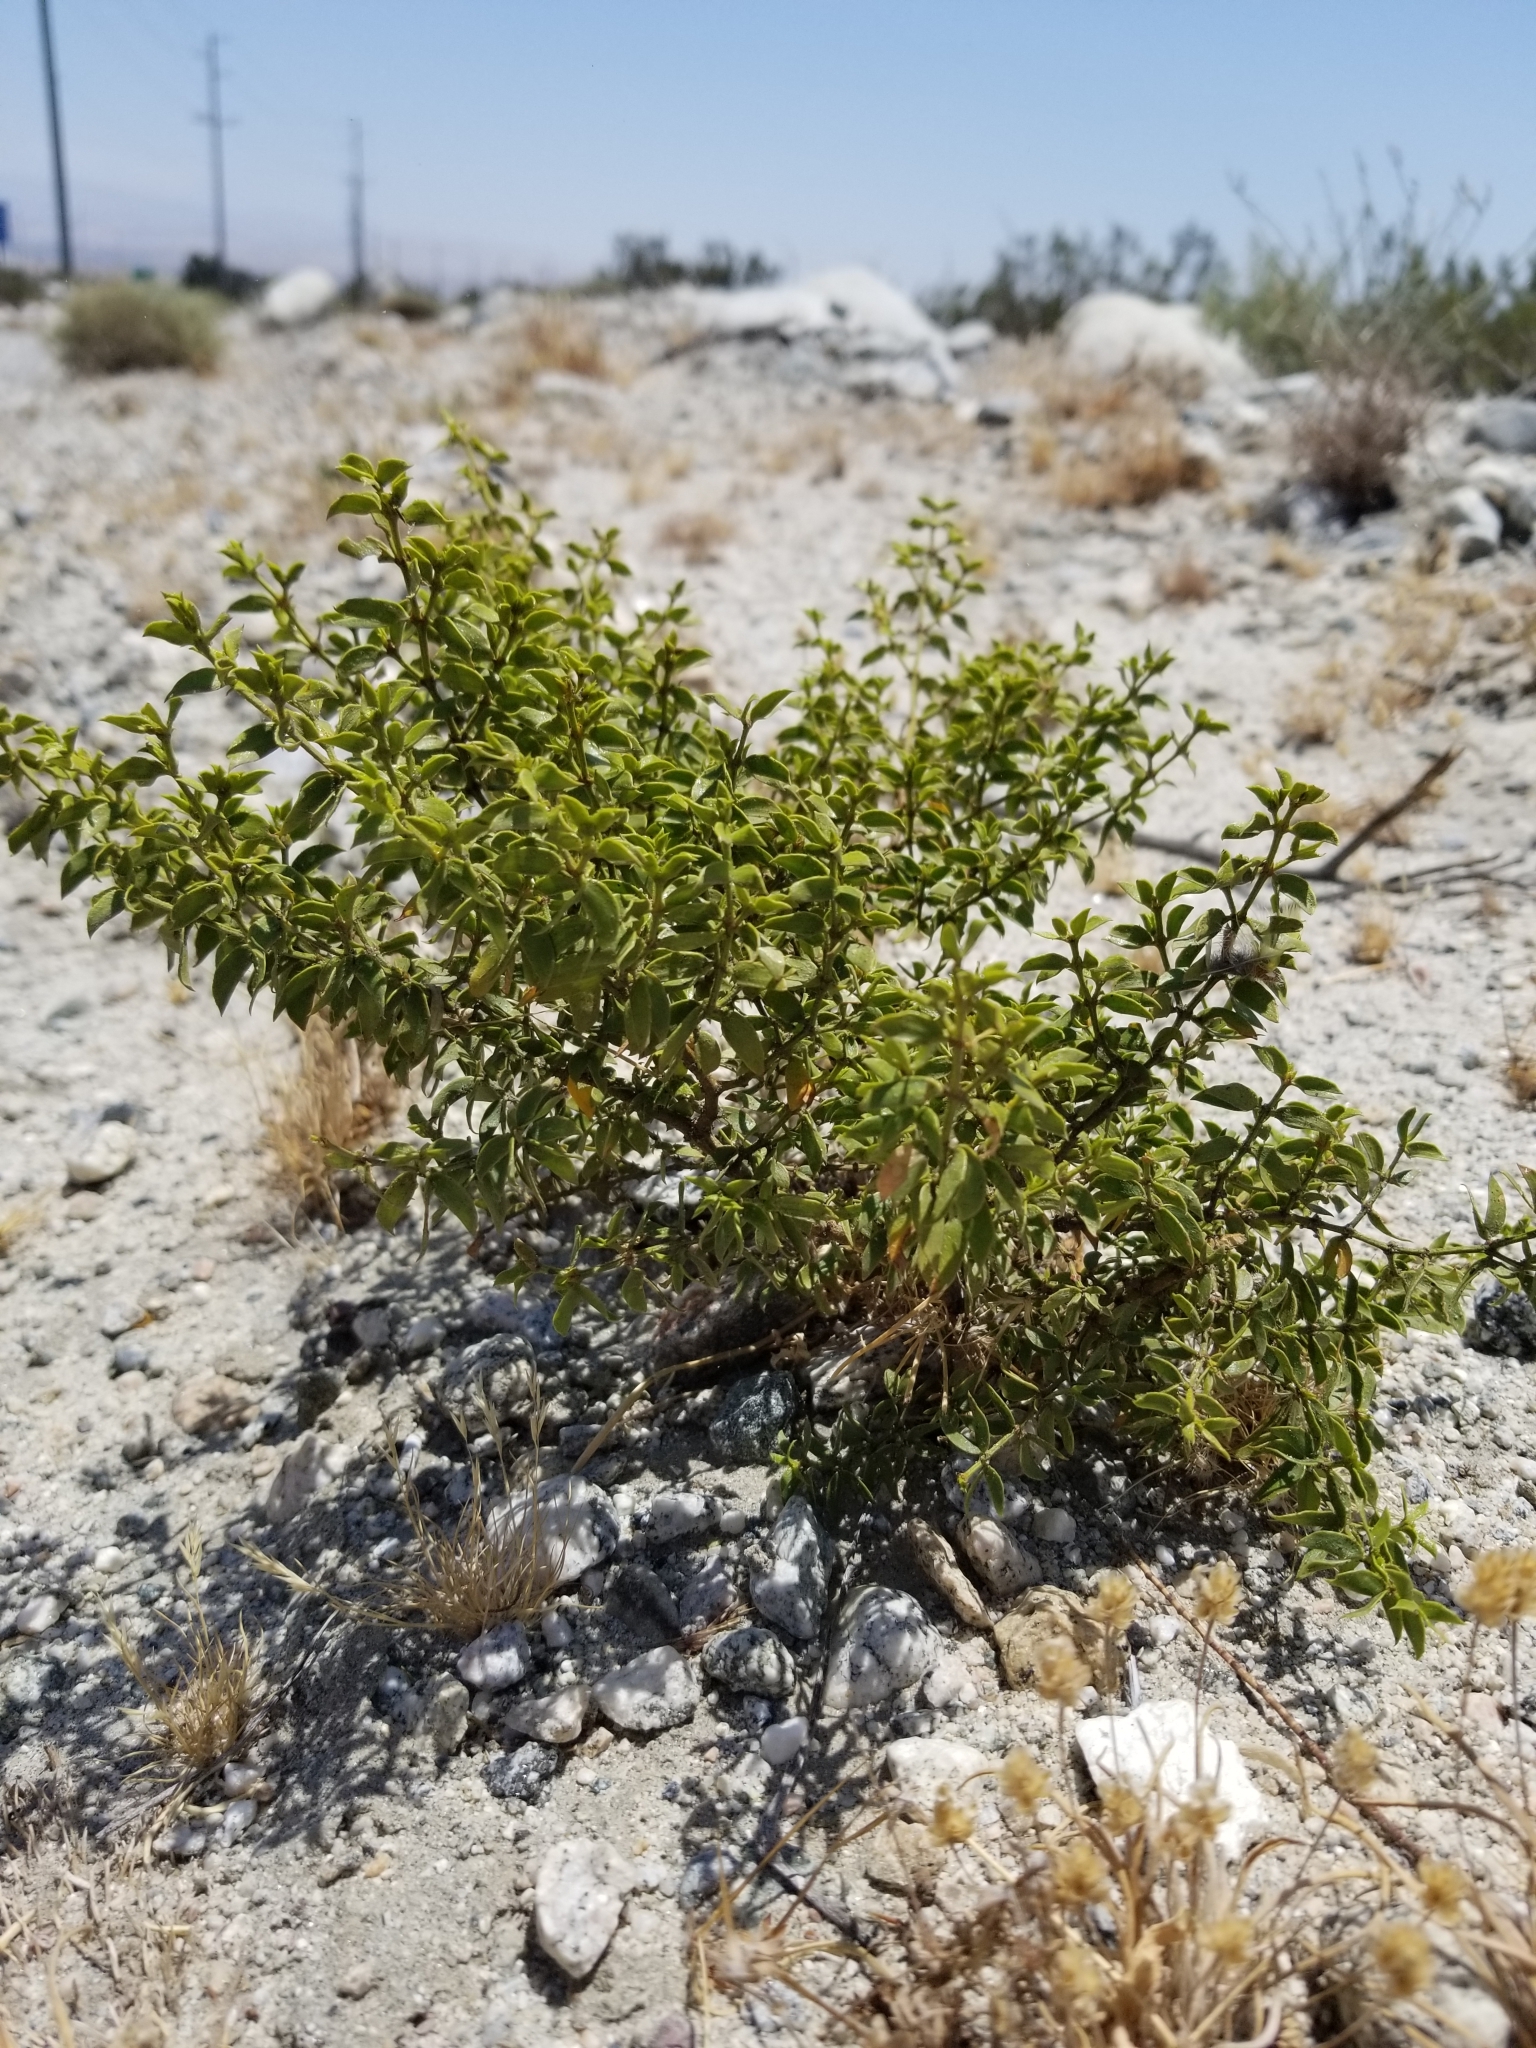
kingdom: Plantae
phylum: Tracheophyta
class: Magnoliopsida
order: Zygophyllales
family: Zygophyllaceae
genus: Larrea
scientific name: Larrea tridentata
